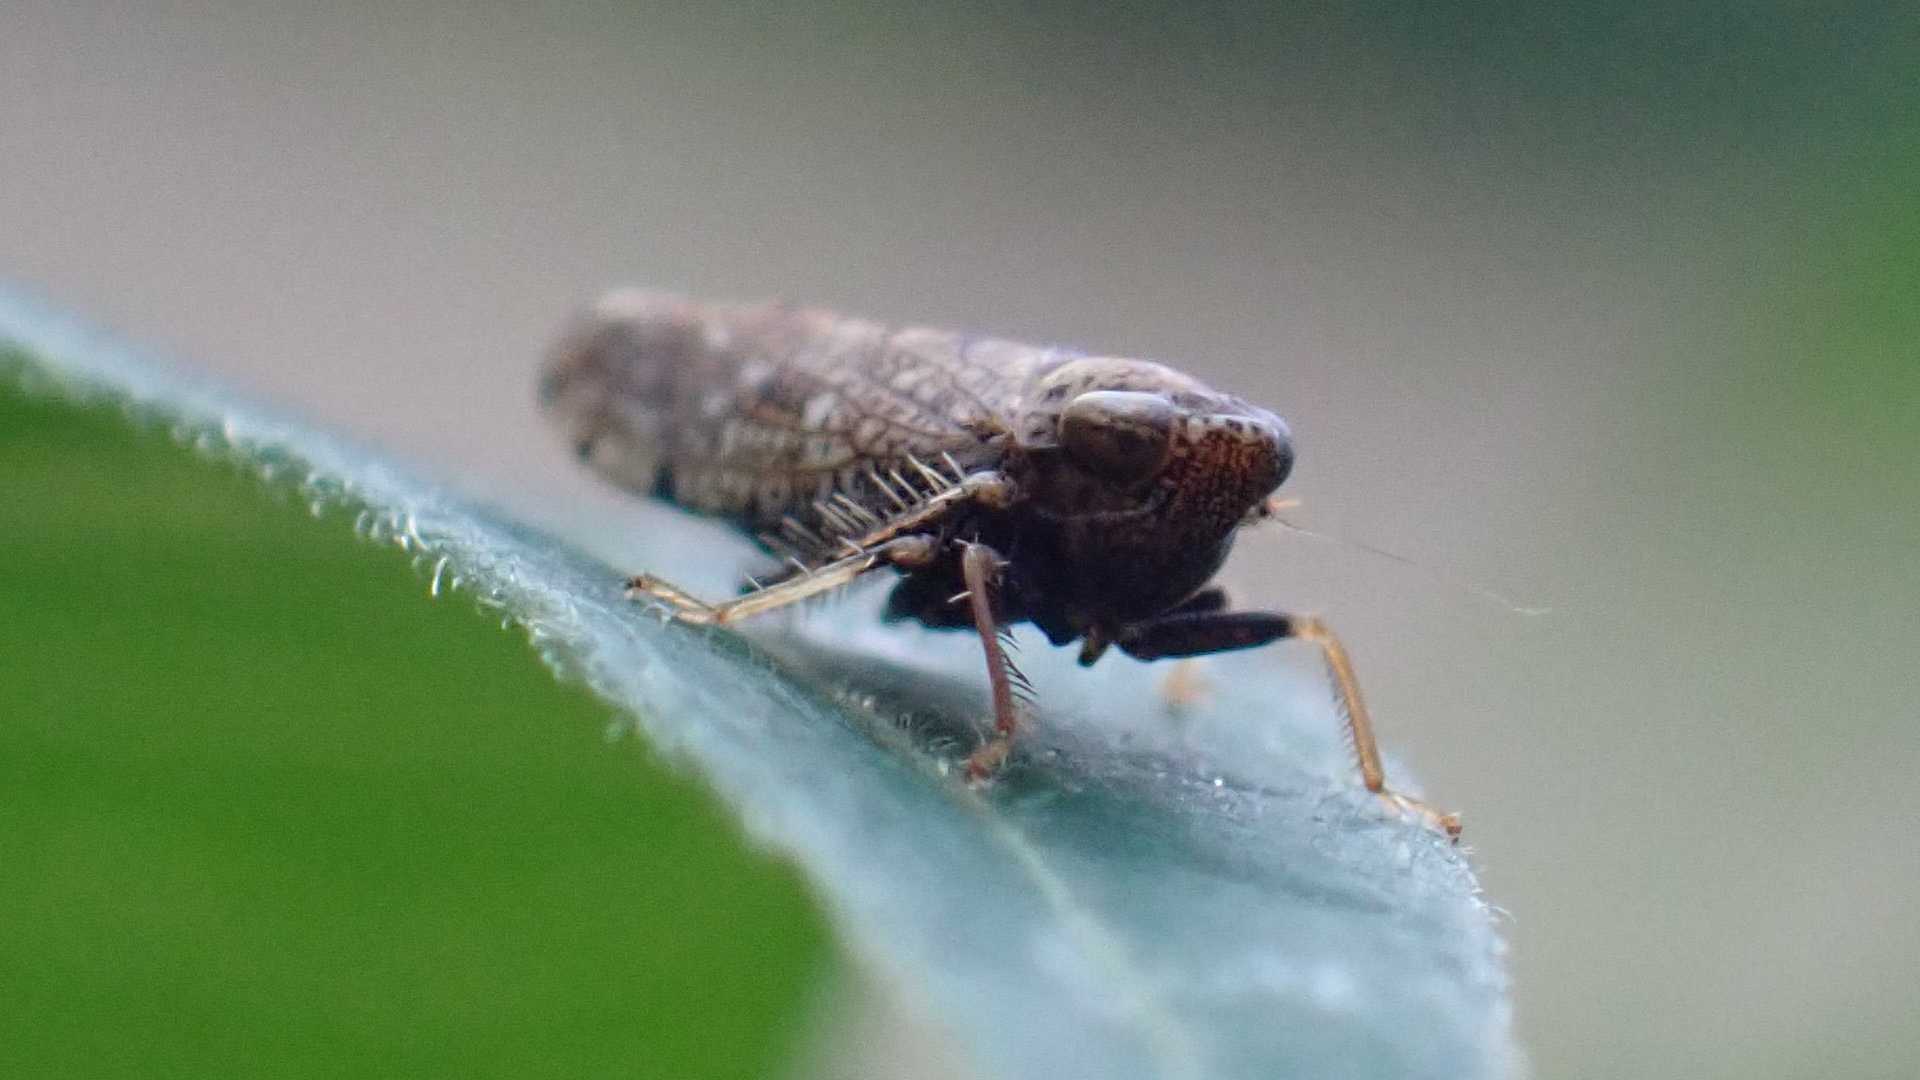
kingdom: Animalia
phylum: Arthropoda
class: Insecta
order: Hemiptera
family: Cicadellidae
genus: Orientus
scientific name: Orientus ishidae
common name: Japanese leafhopper
